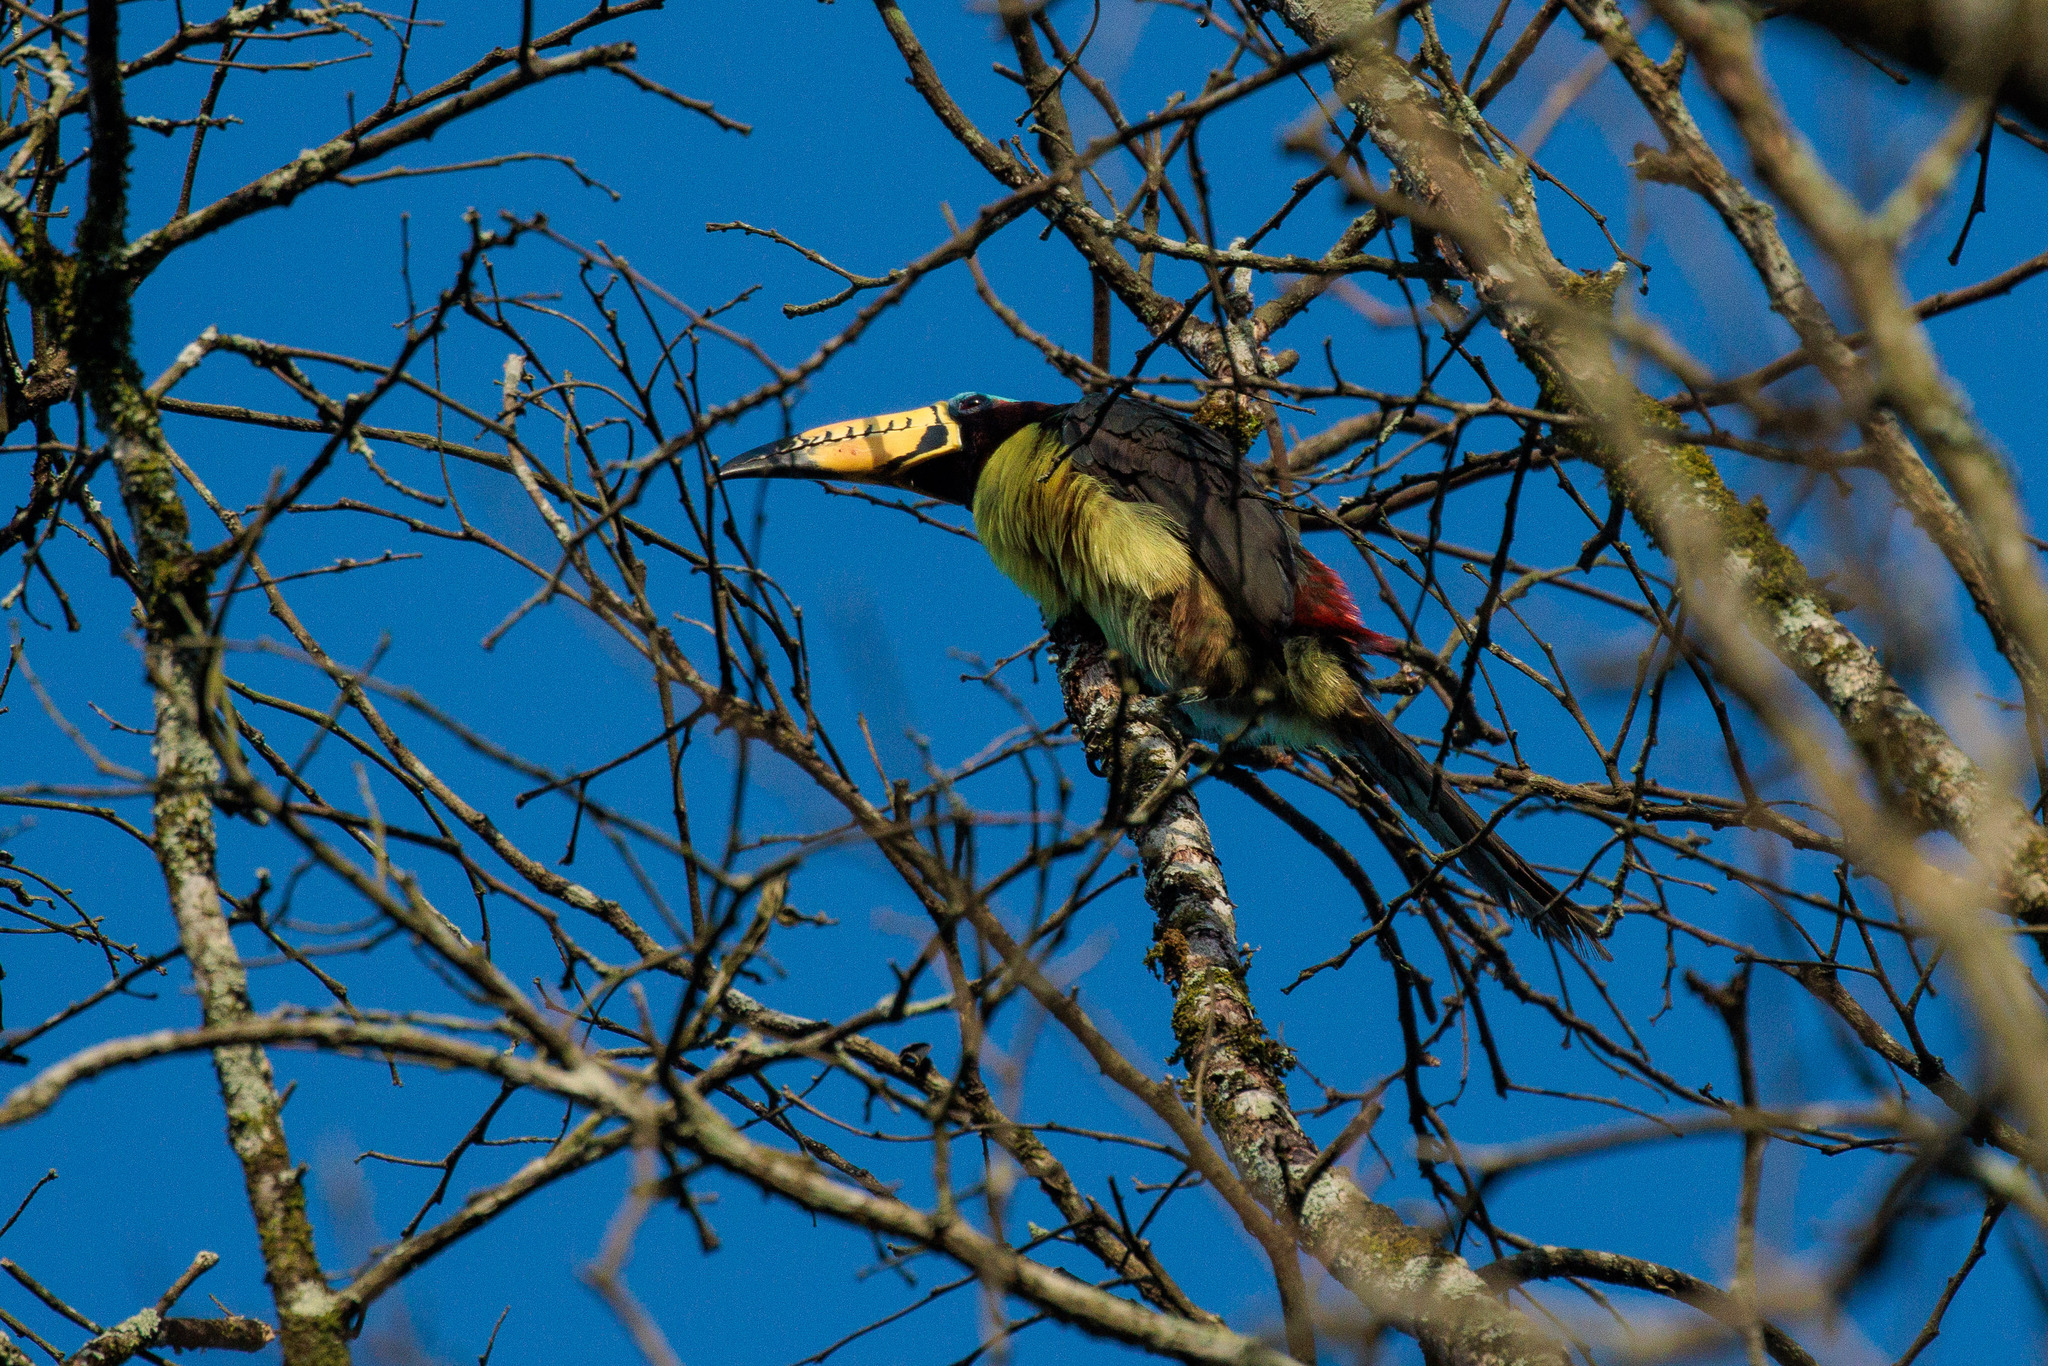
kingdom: Animalia
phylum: Chordata
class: Aves
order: Piciformes
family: Ramphastidae
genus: Pteroglossus
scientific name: Pteroglossus inscriptus
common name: Lettered aracari
